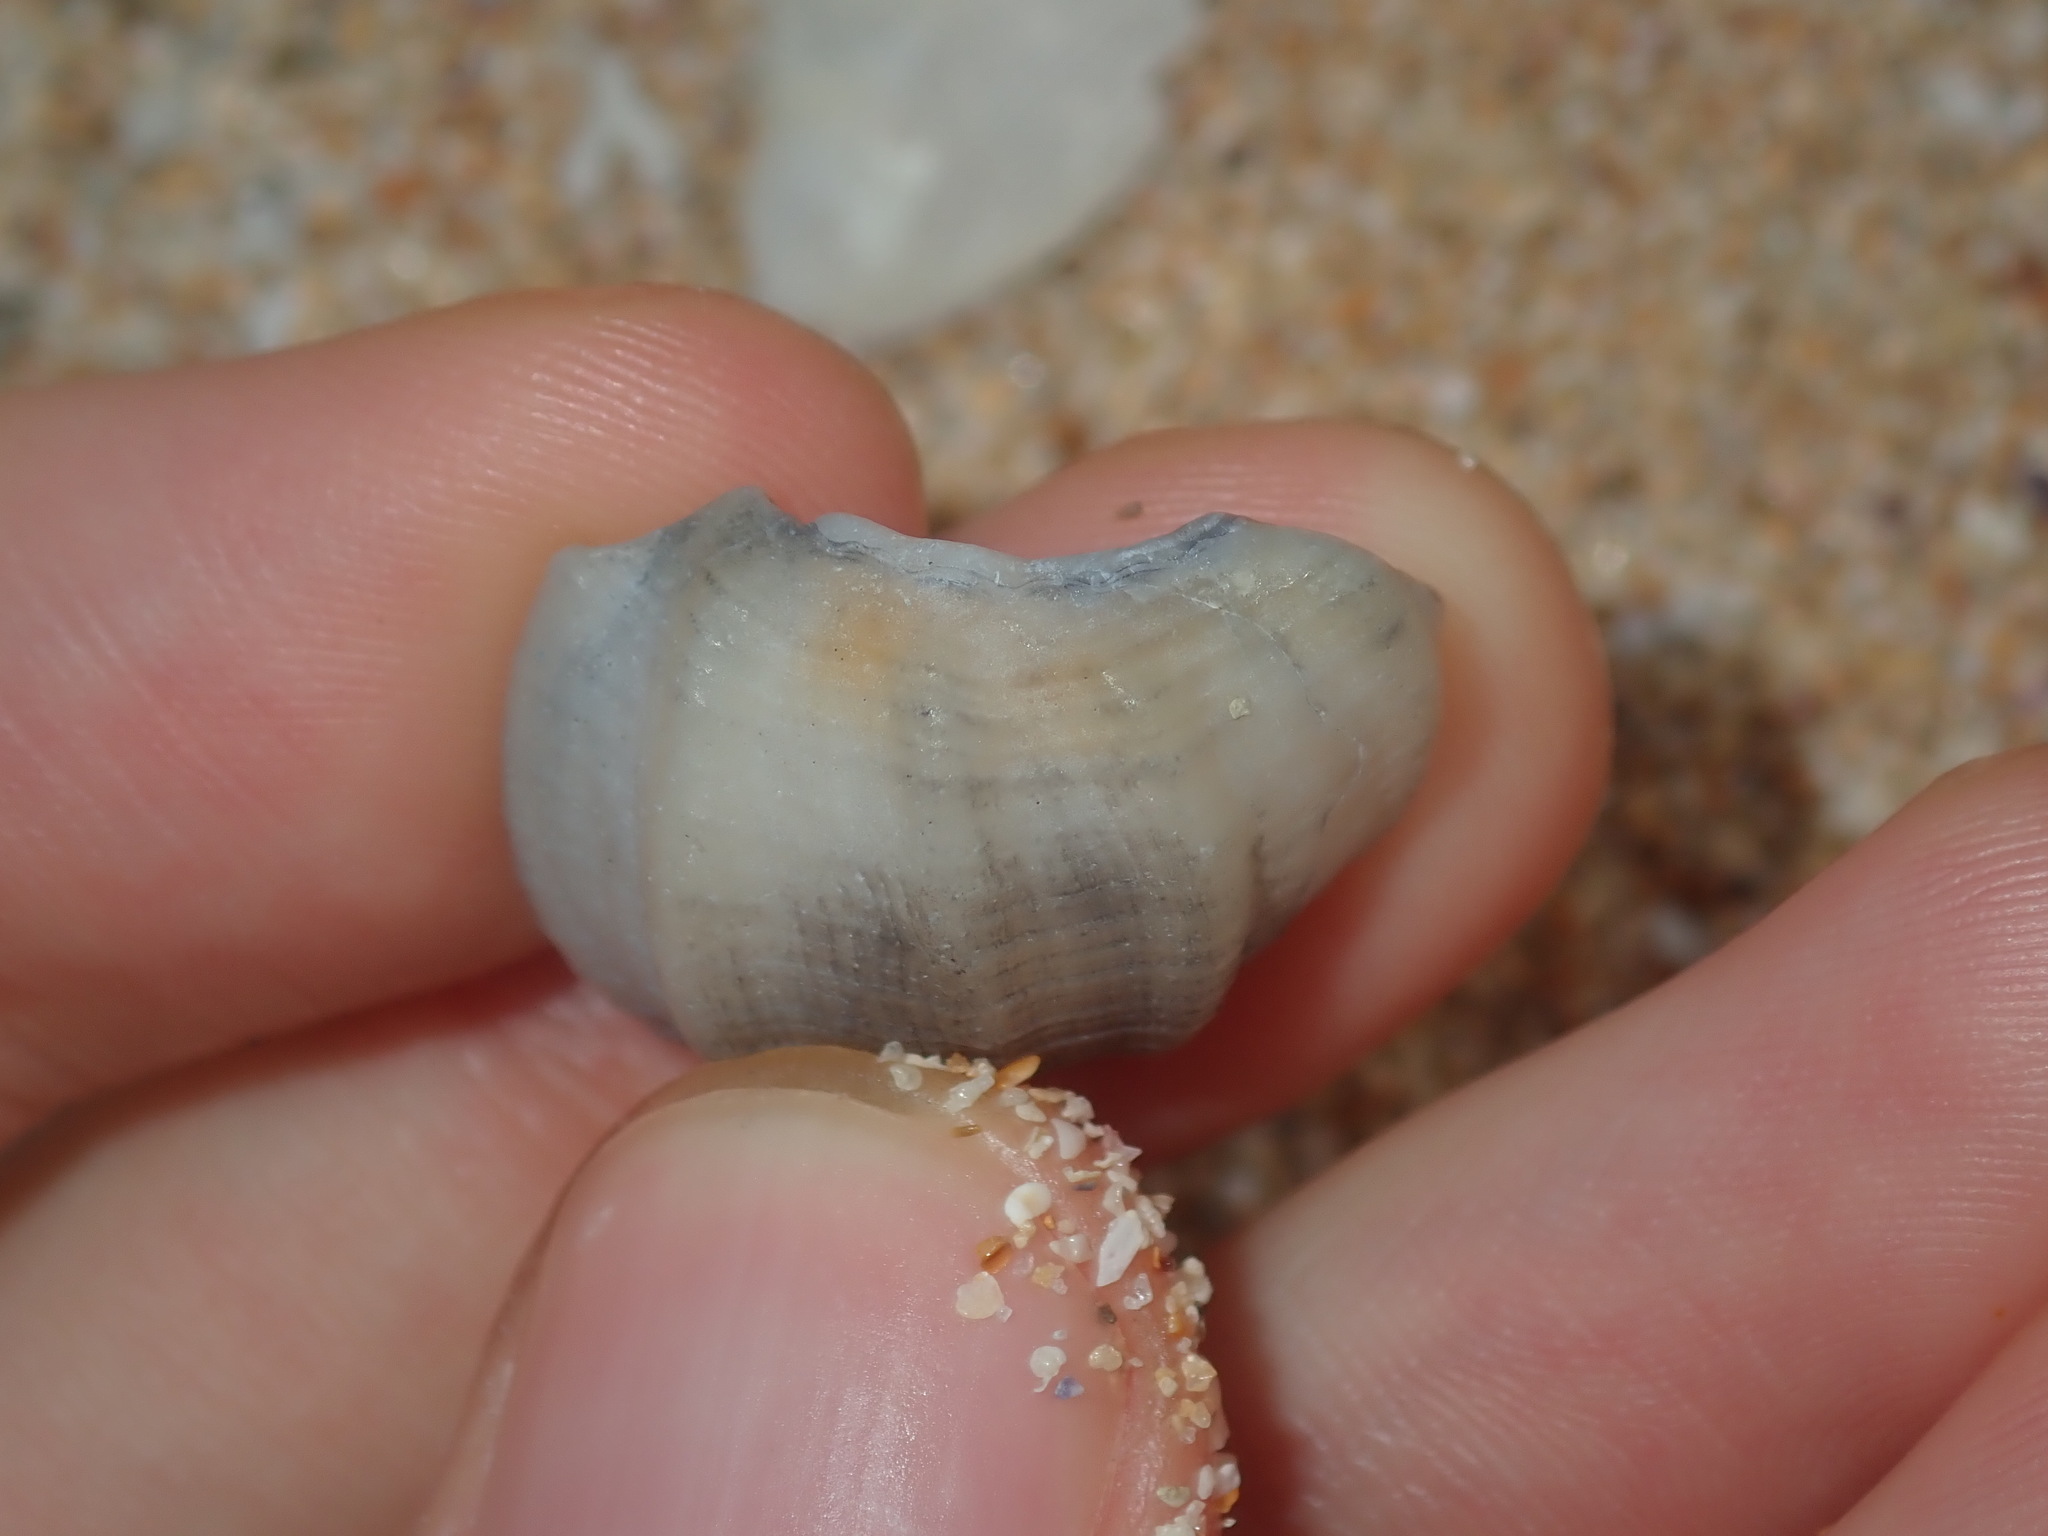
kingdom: Animalia
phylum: Mollusca
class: Gastropoda
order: Neogastropoda
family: Cancellariidae
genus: Merica
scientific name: Merica undulata
